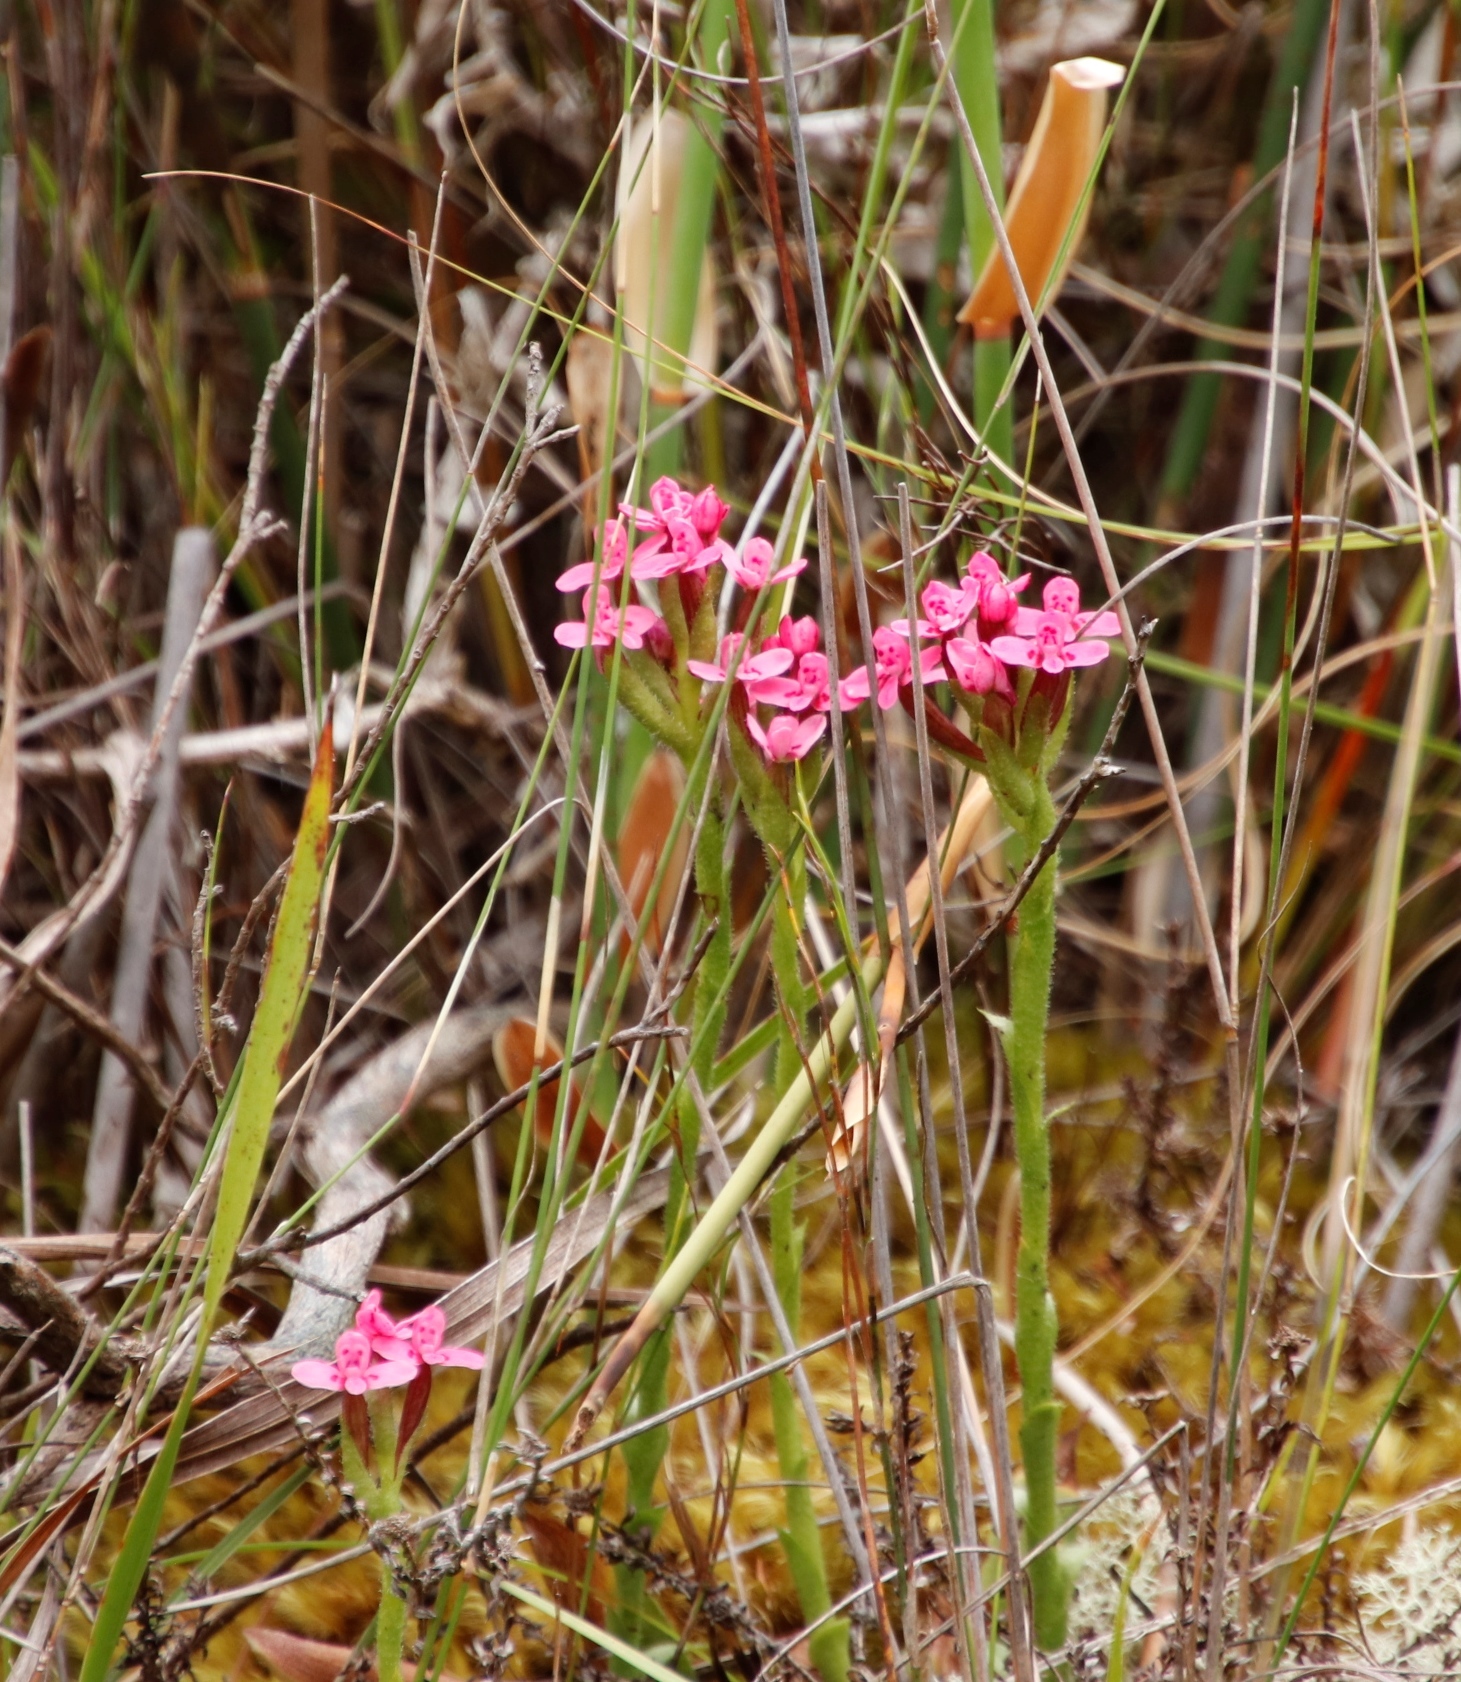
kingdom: Plantae
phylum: Tracheophyta
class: Liliopsida
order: Asparagales
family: Orchidaceae
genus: Disa
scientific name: Disa glandulosa
